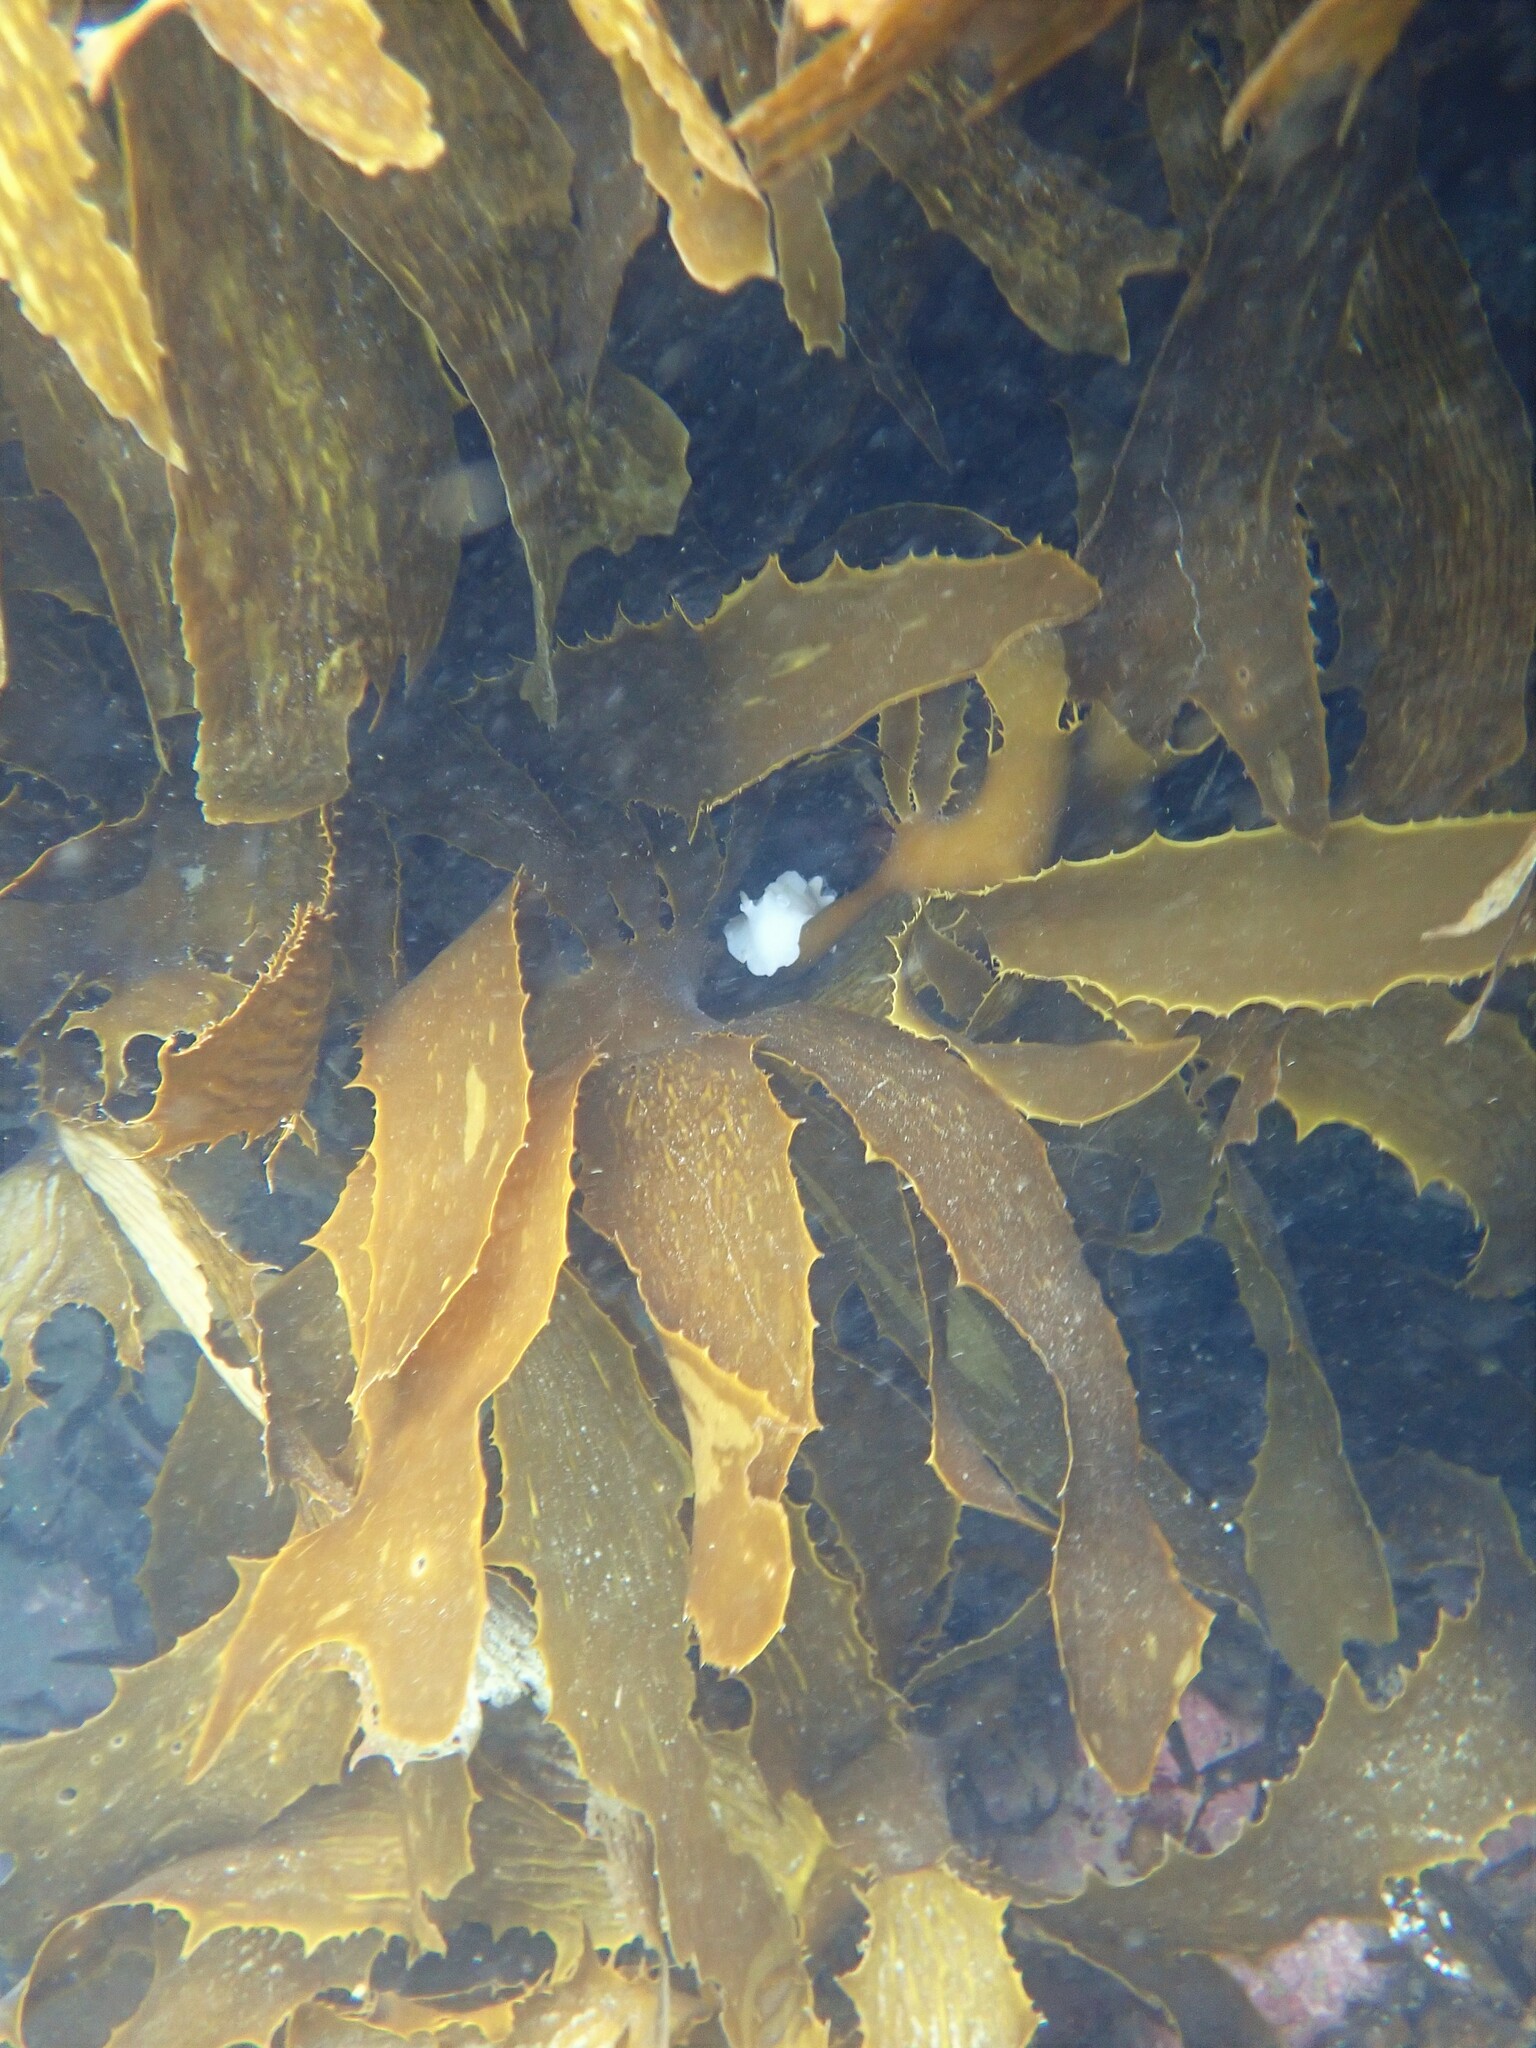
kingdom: Animalia
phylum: Mollusca
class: Gastropoda
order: Nudibranchia
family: Discodorididae
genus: Atagema
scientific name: Atagema carinata
